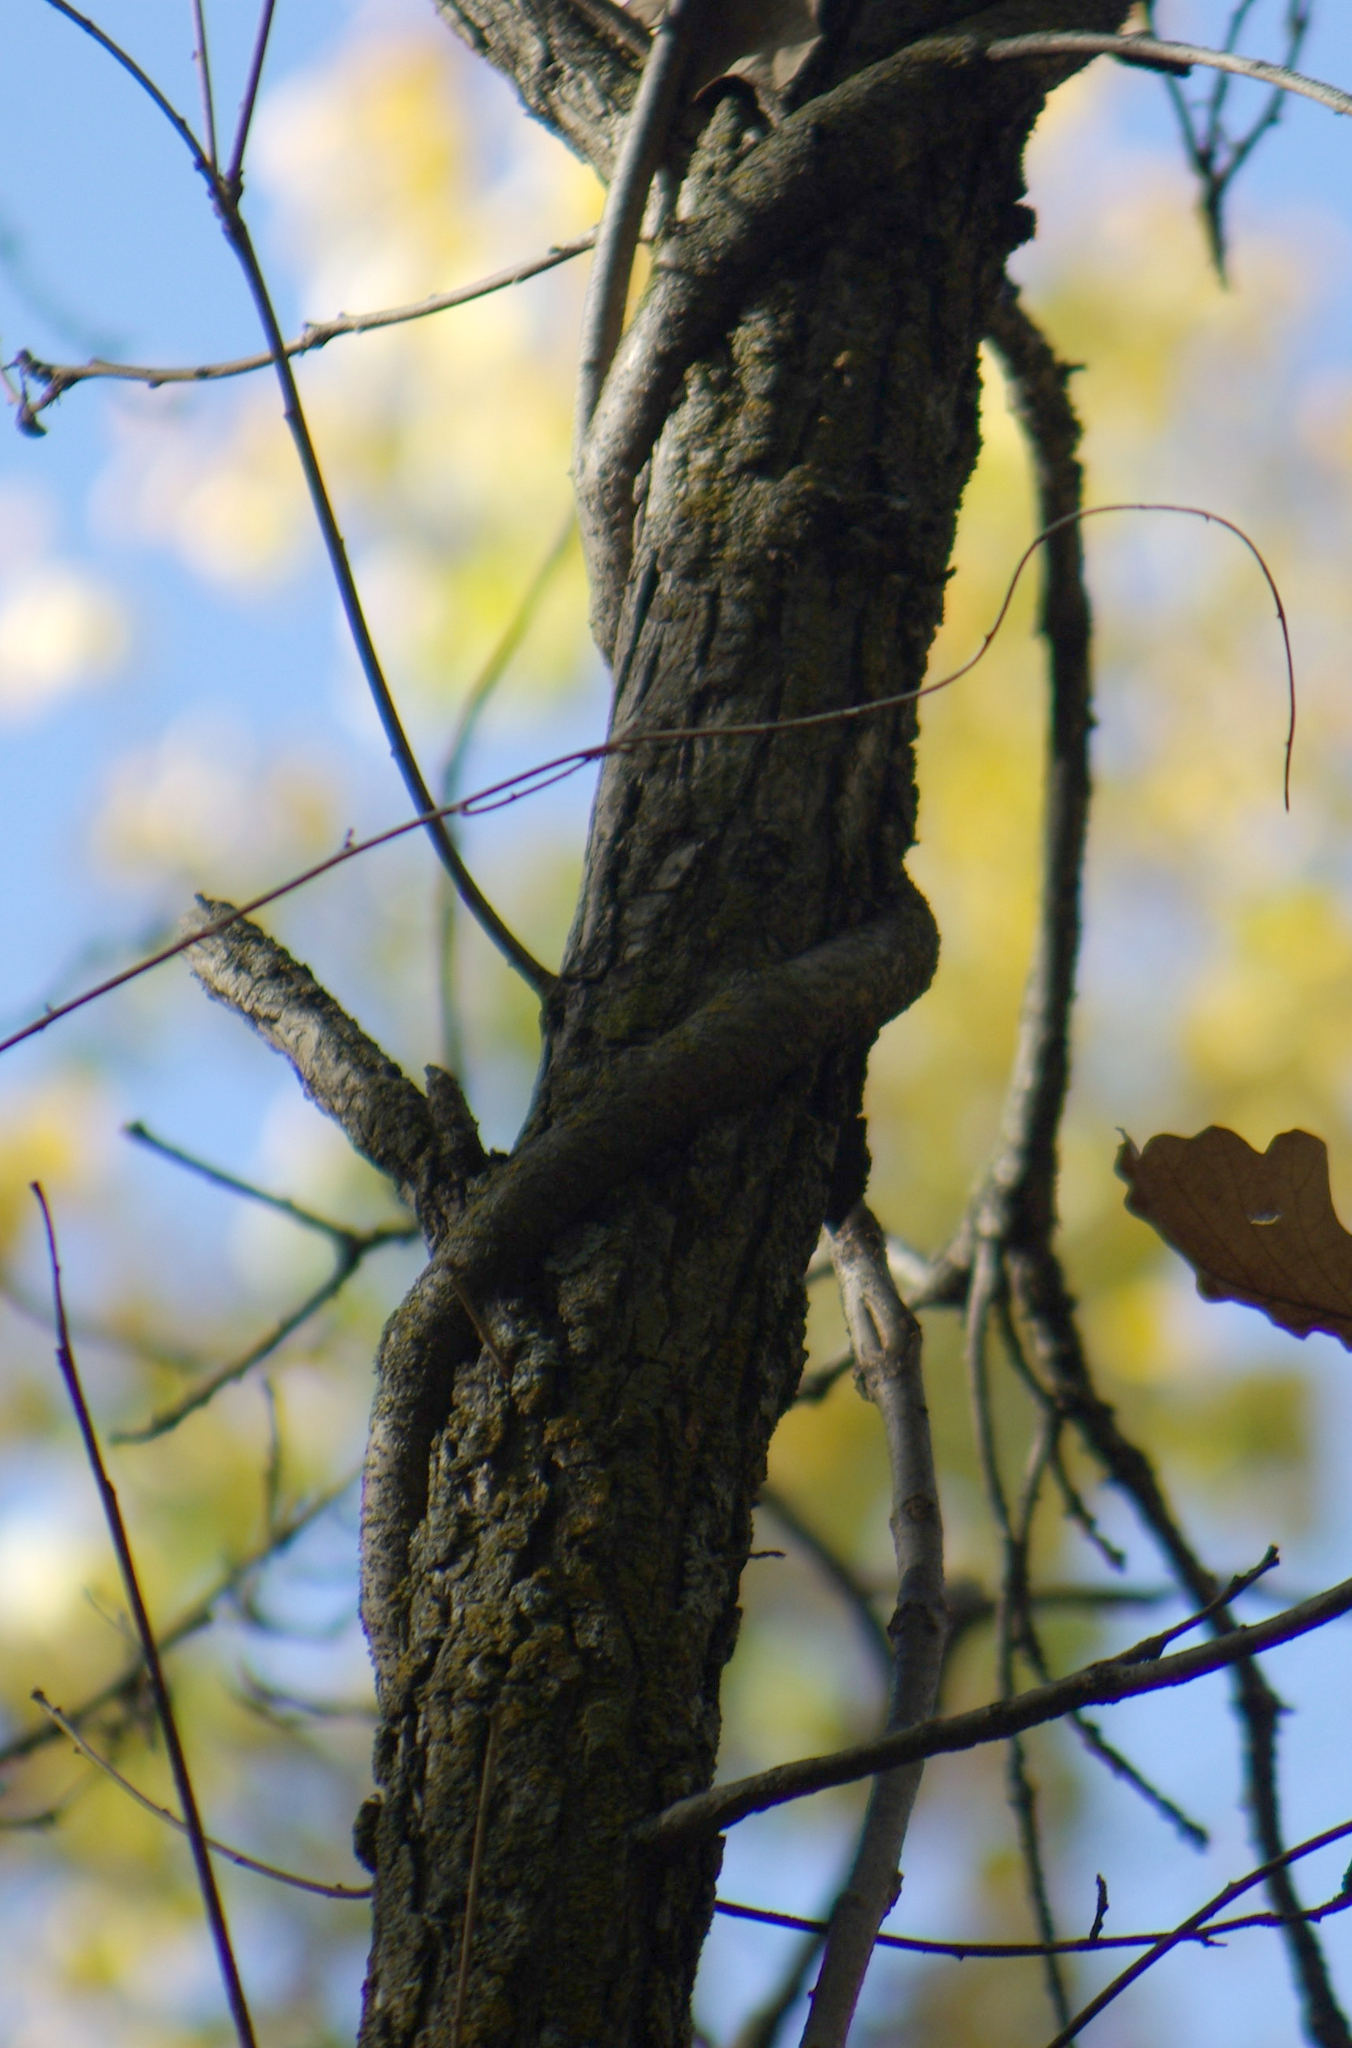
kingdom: Plantae
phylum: Tracheophyta
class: Magnoliopsida
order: Celastrales
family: Celastraceae
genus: Celastrus
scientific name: Celastrus scandens
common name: American bittersweet
